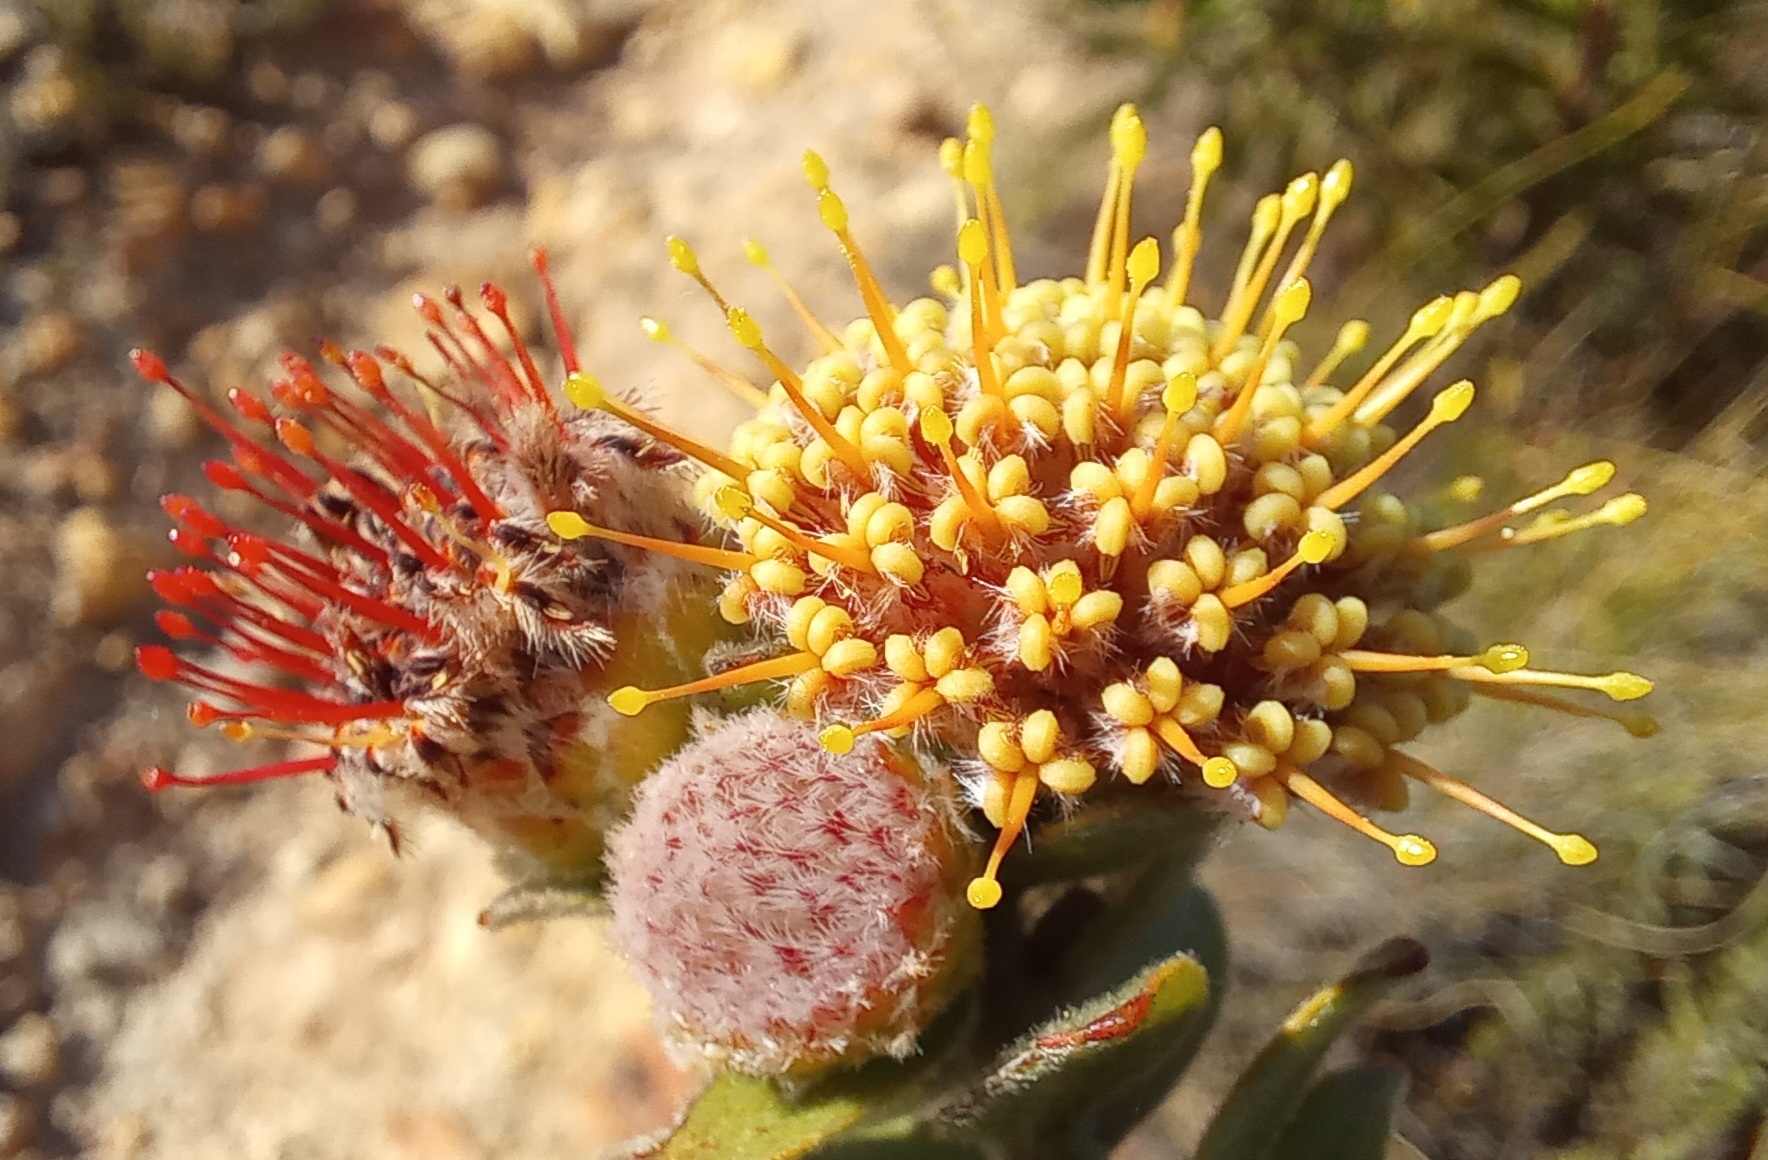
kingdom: Plantae
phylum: Tracheophyta
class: Magnoliopsida
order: Proteales
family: Proteaceae
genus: Leucospermum
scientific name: Leucospermum truncatulum
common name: Oval-leaf pincushion
